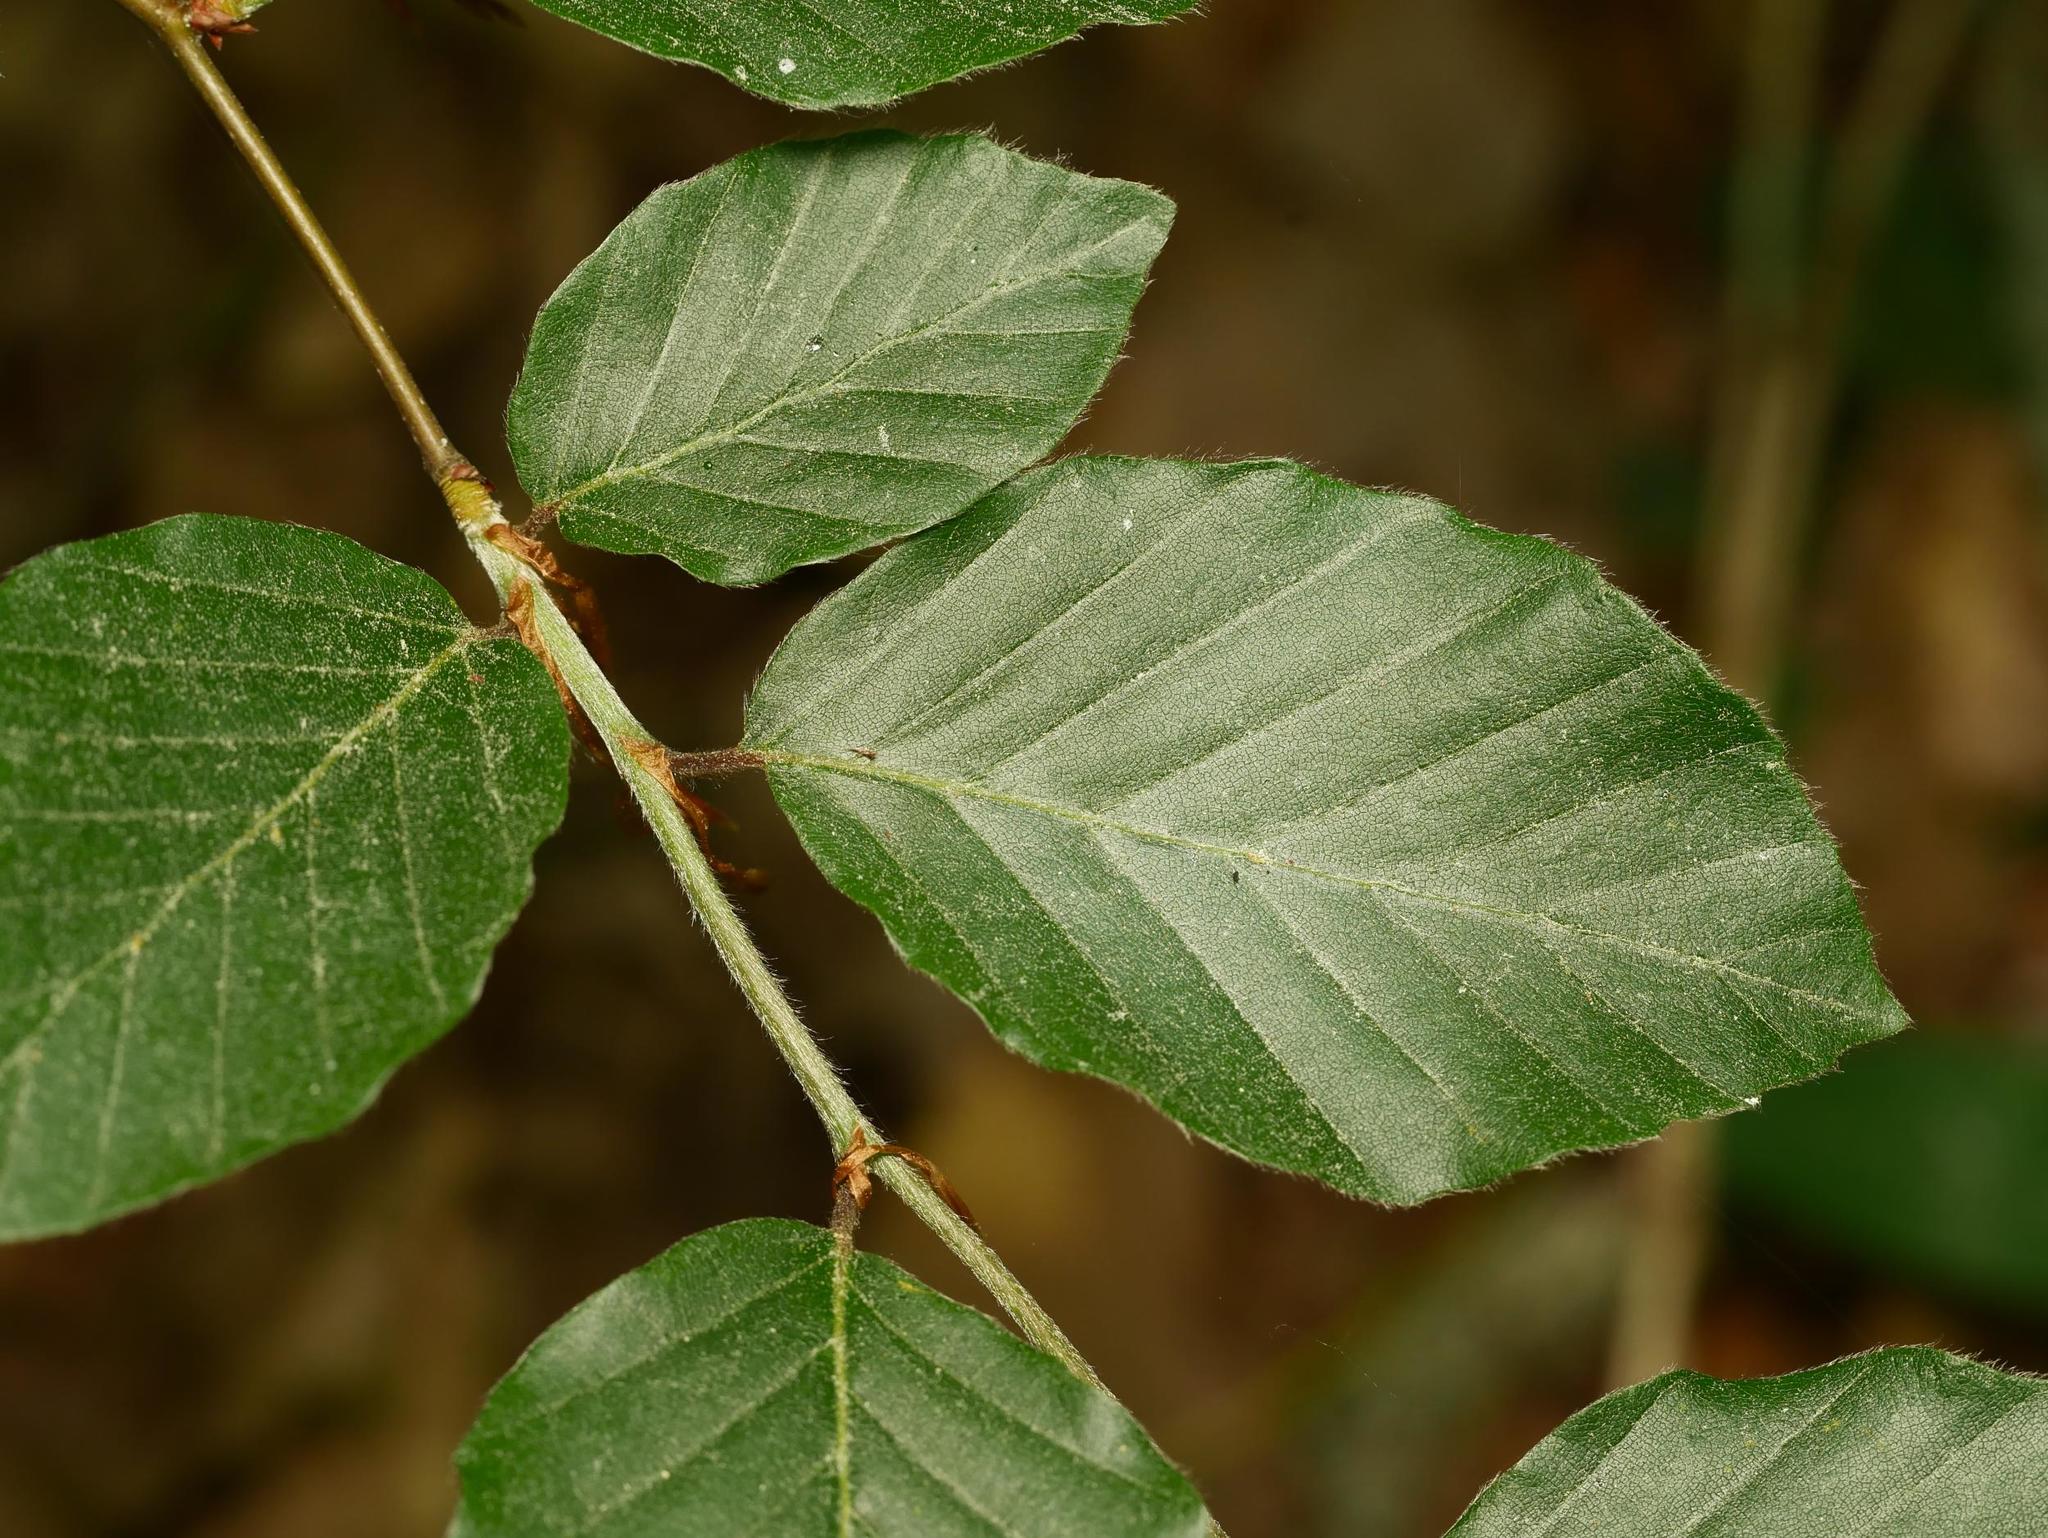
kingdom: Plantae
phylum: Tracheophyta
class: Magnoliopsida
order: Fagales
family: Fagaceae
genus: Fagus
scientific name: Fagus sylvatica
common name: Beech
